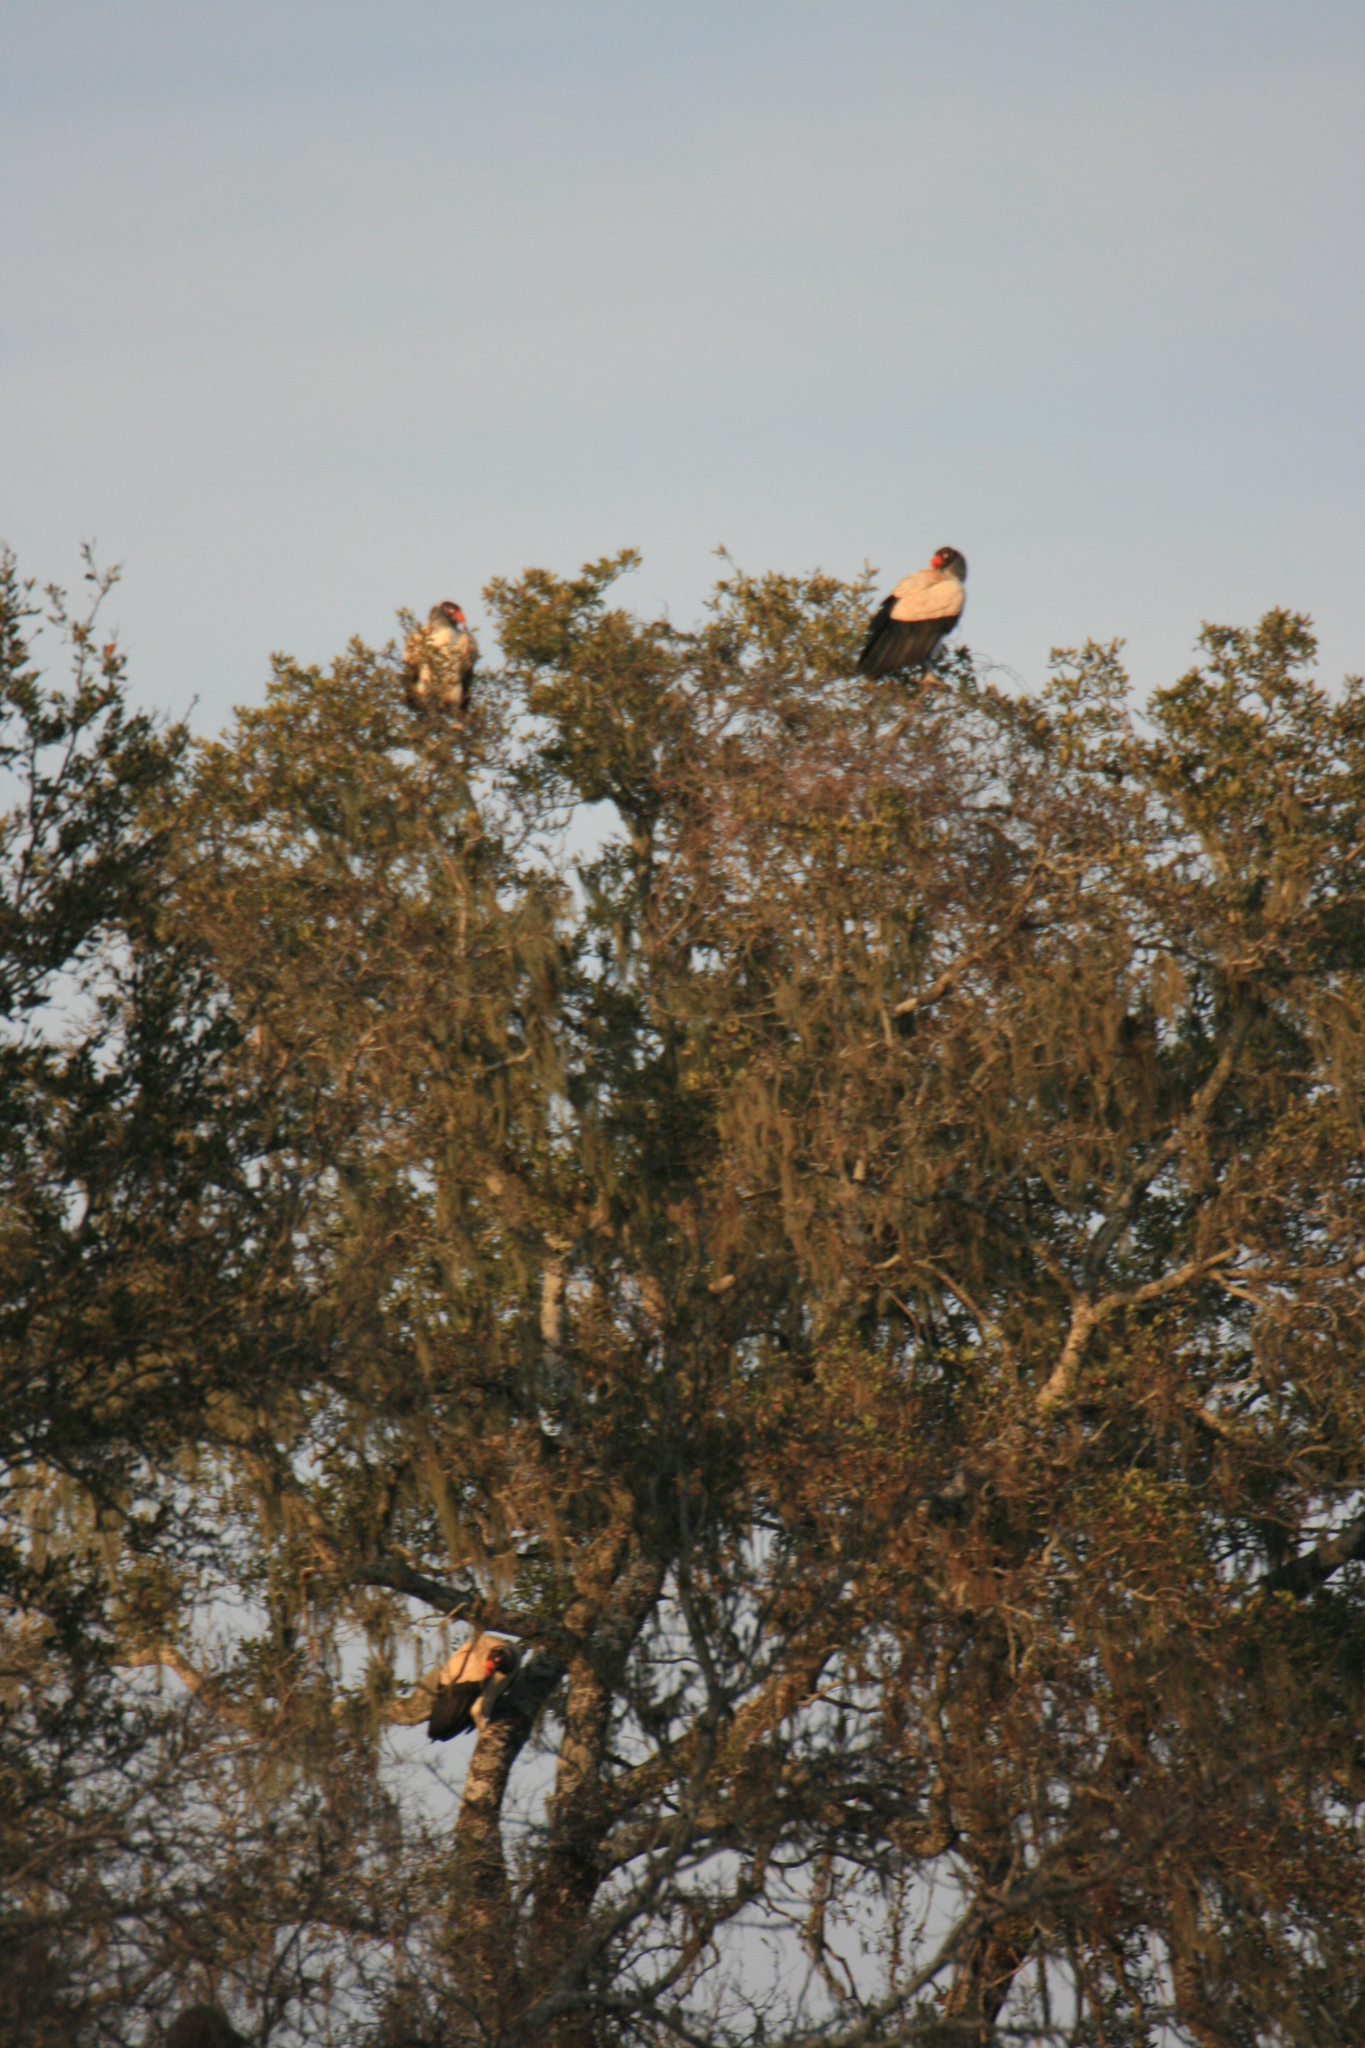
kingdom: Animalia
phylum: Chordata
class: Aves
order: Accipitriformes
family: Cathartidae
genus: Sarcoramphus
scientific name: Sarcoramphus papa
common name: King vulture
